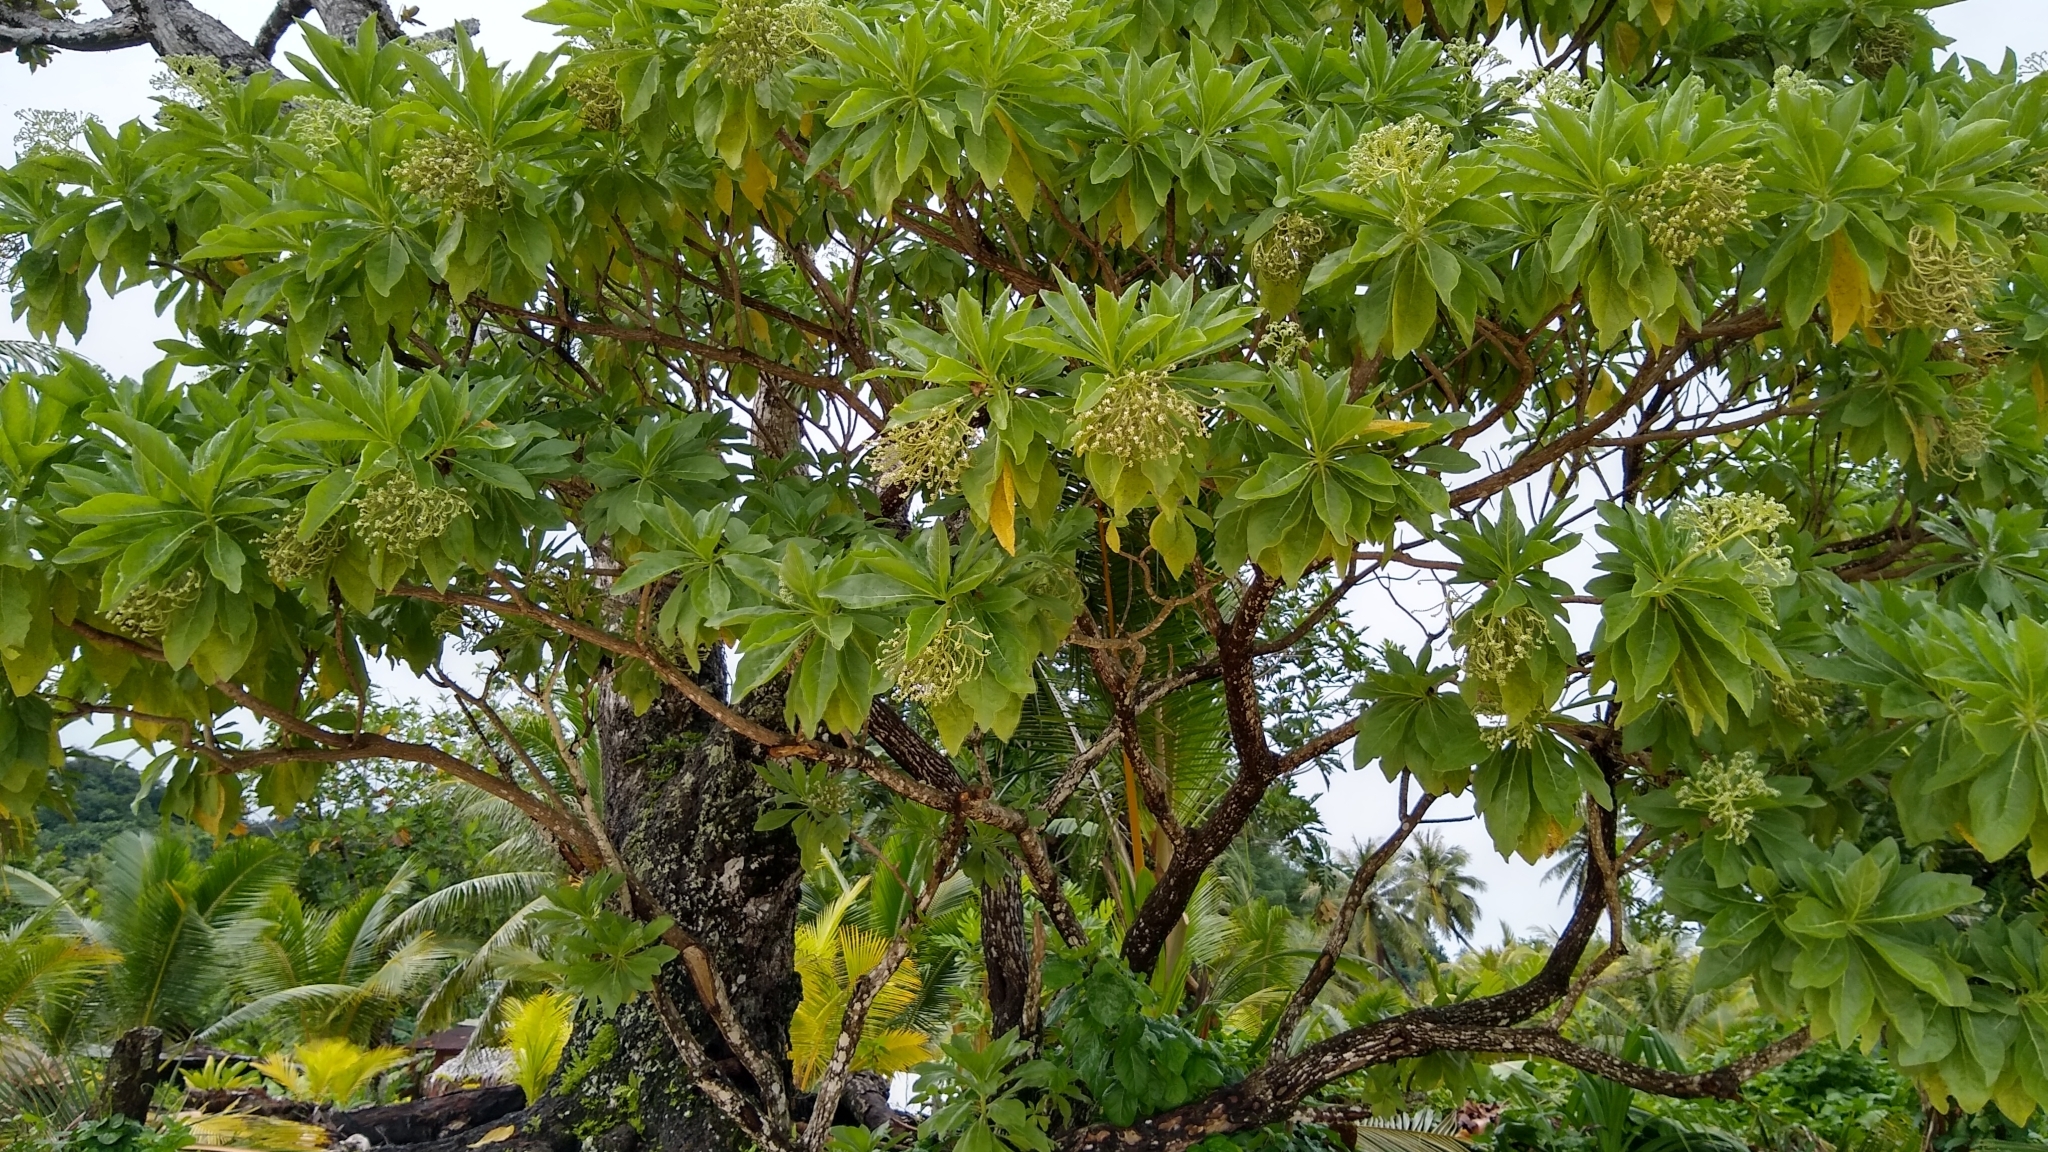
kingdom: Plantae
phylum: Tracheophyta
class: Magnoliopsida
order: Boraginales
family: Heliotropiaceae
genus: Heliotropium
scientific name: Heliotropium velutinum
